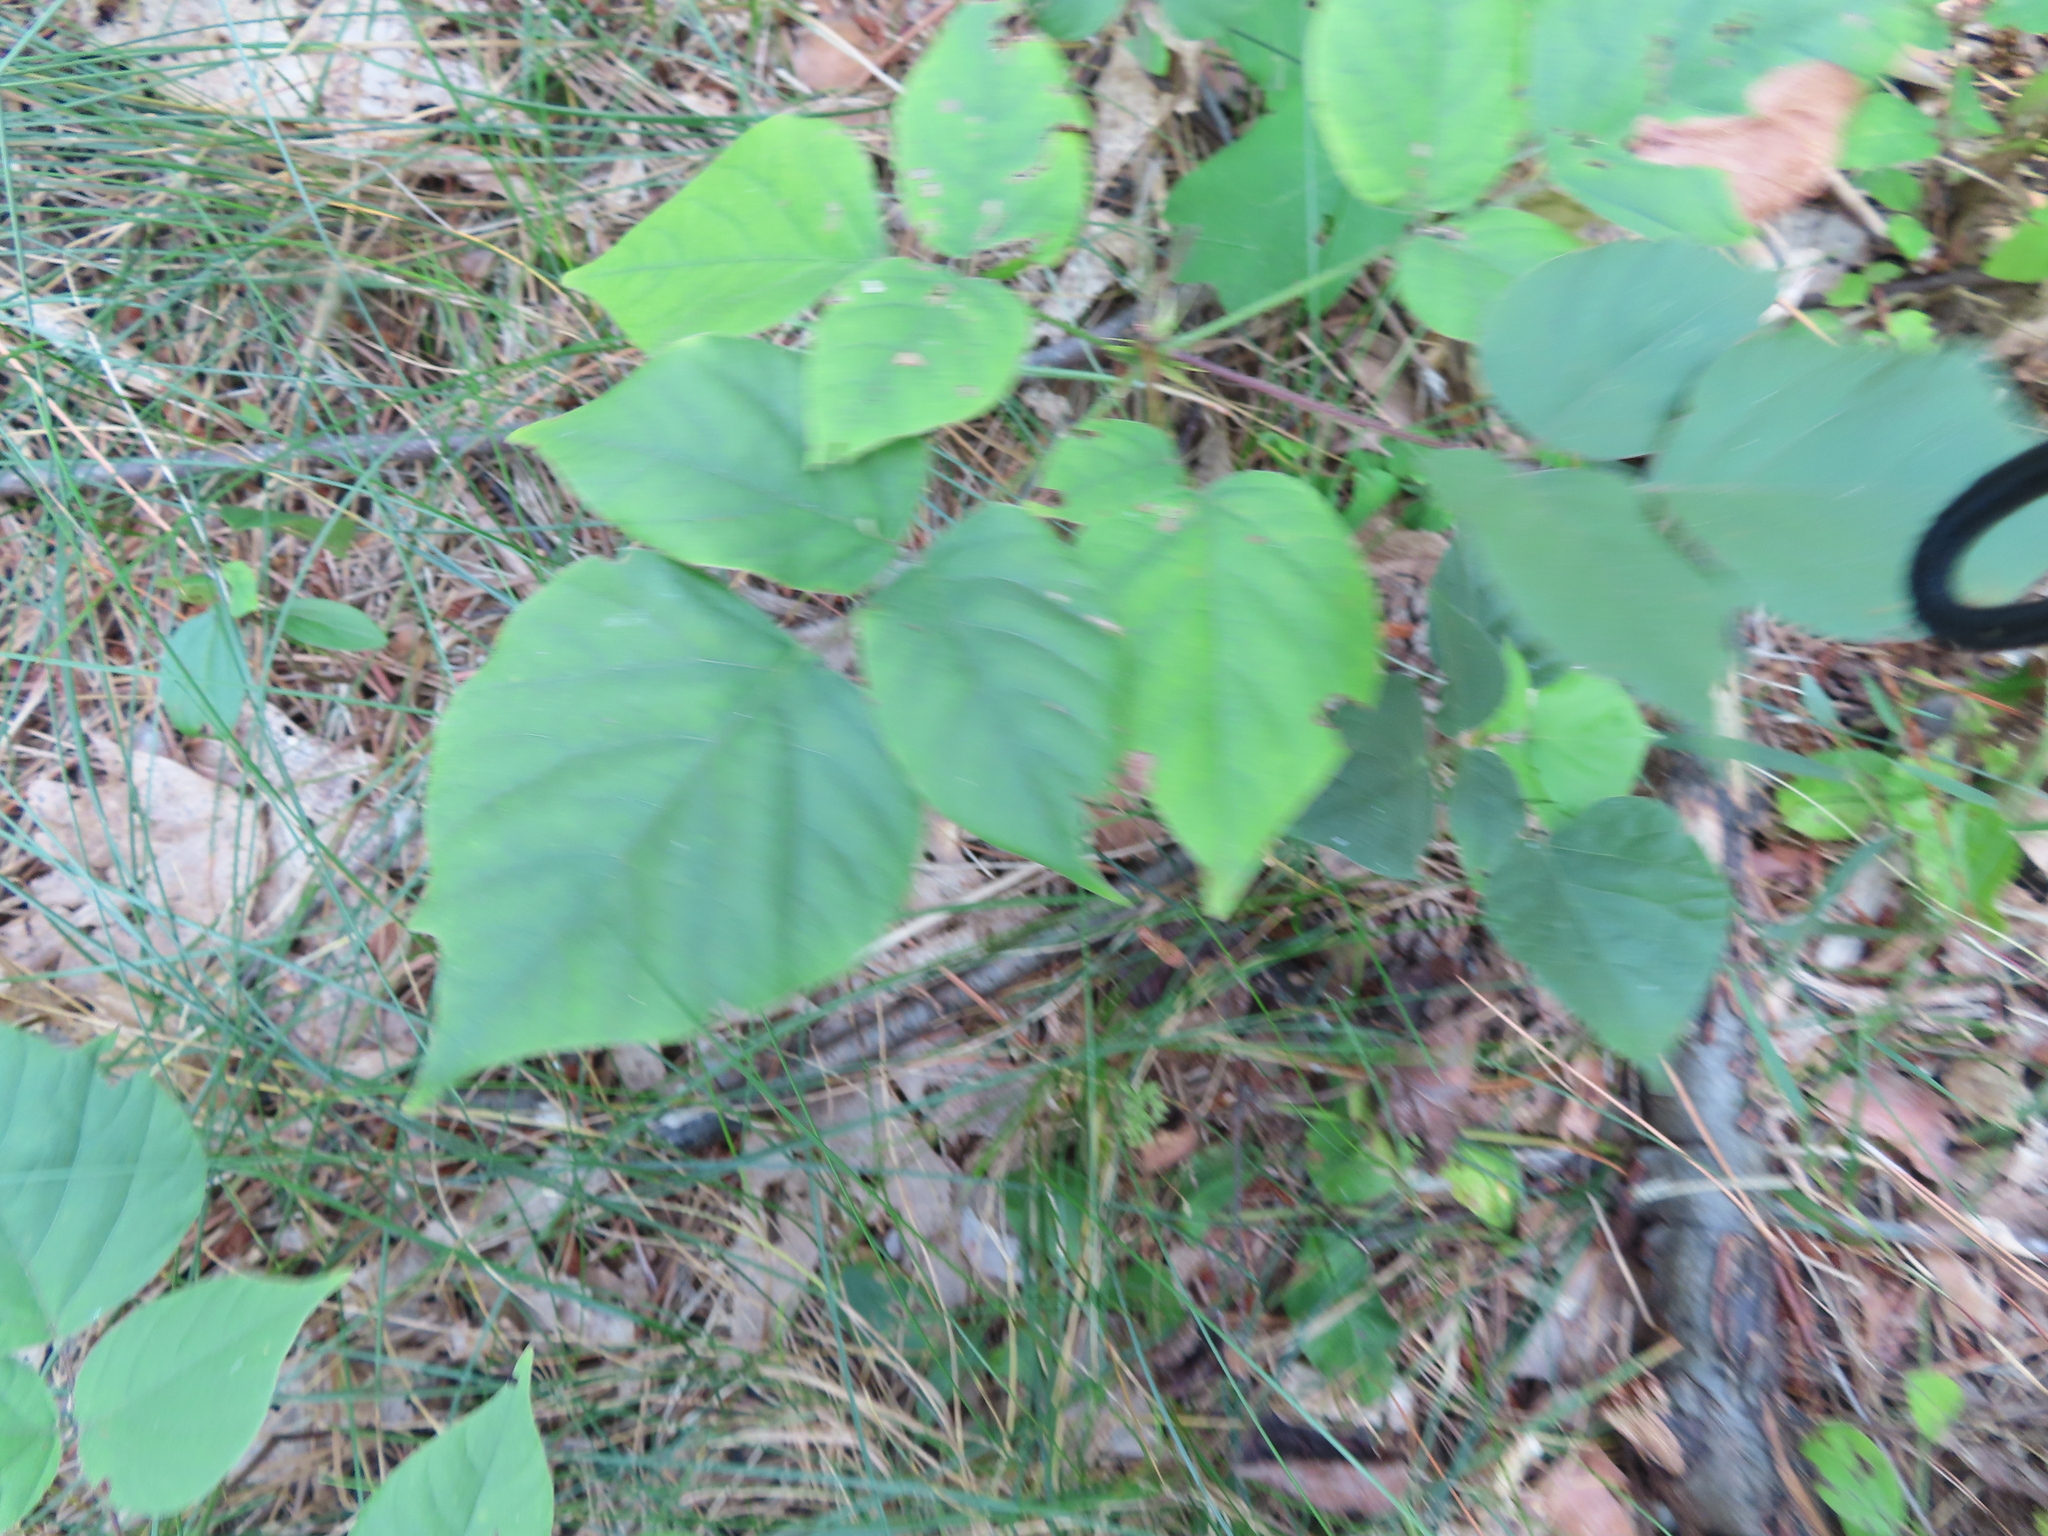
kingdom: Plantae
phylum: Tracheophyta
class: Magnoliopsida
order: Fabales
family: Fabaceae
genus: Hylodesmum
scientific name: Hylodesmum glutinosum
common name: Clustered-leaved tick-trefoil
